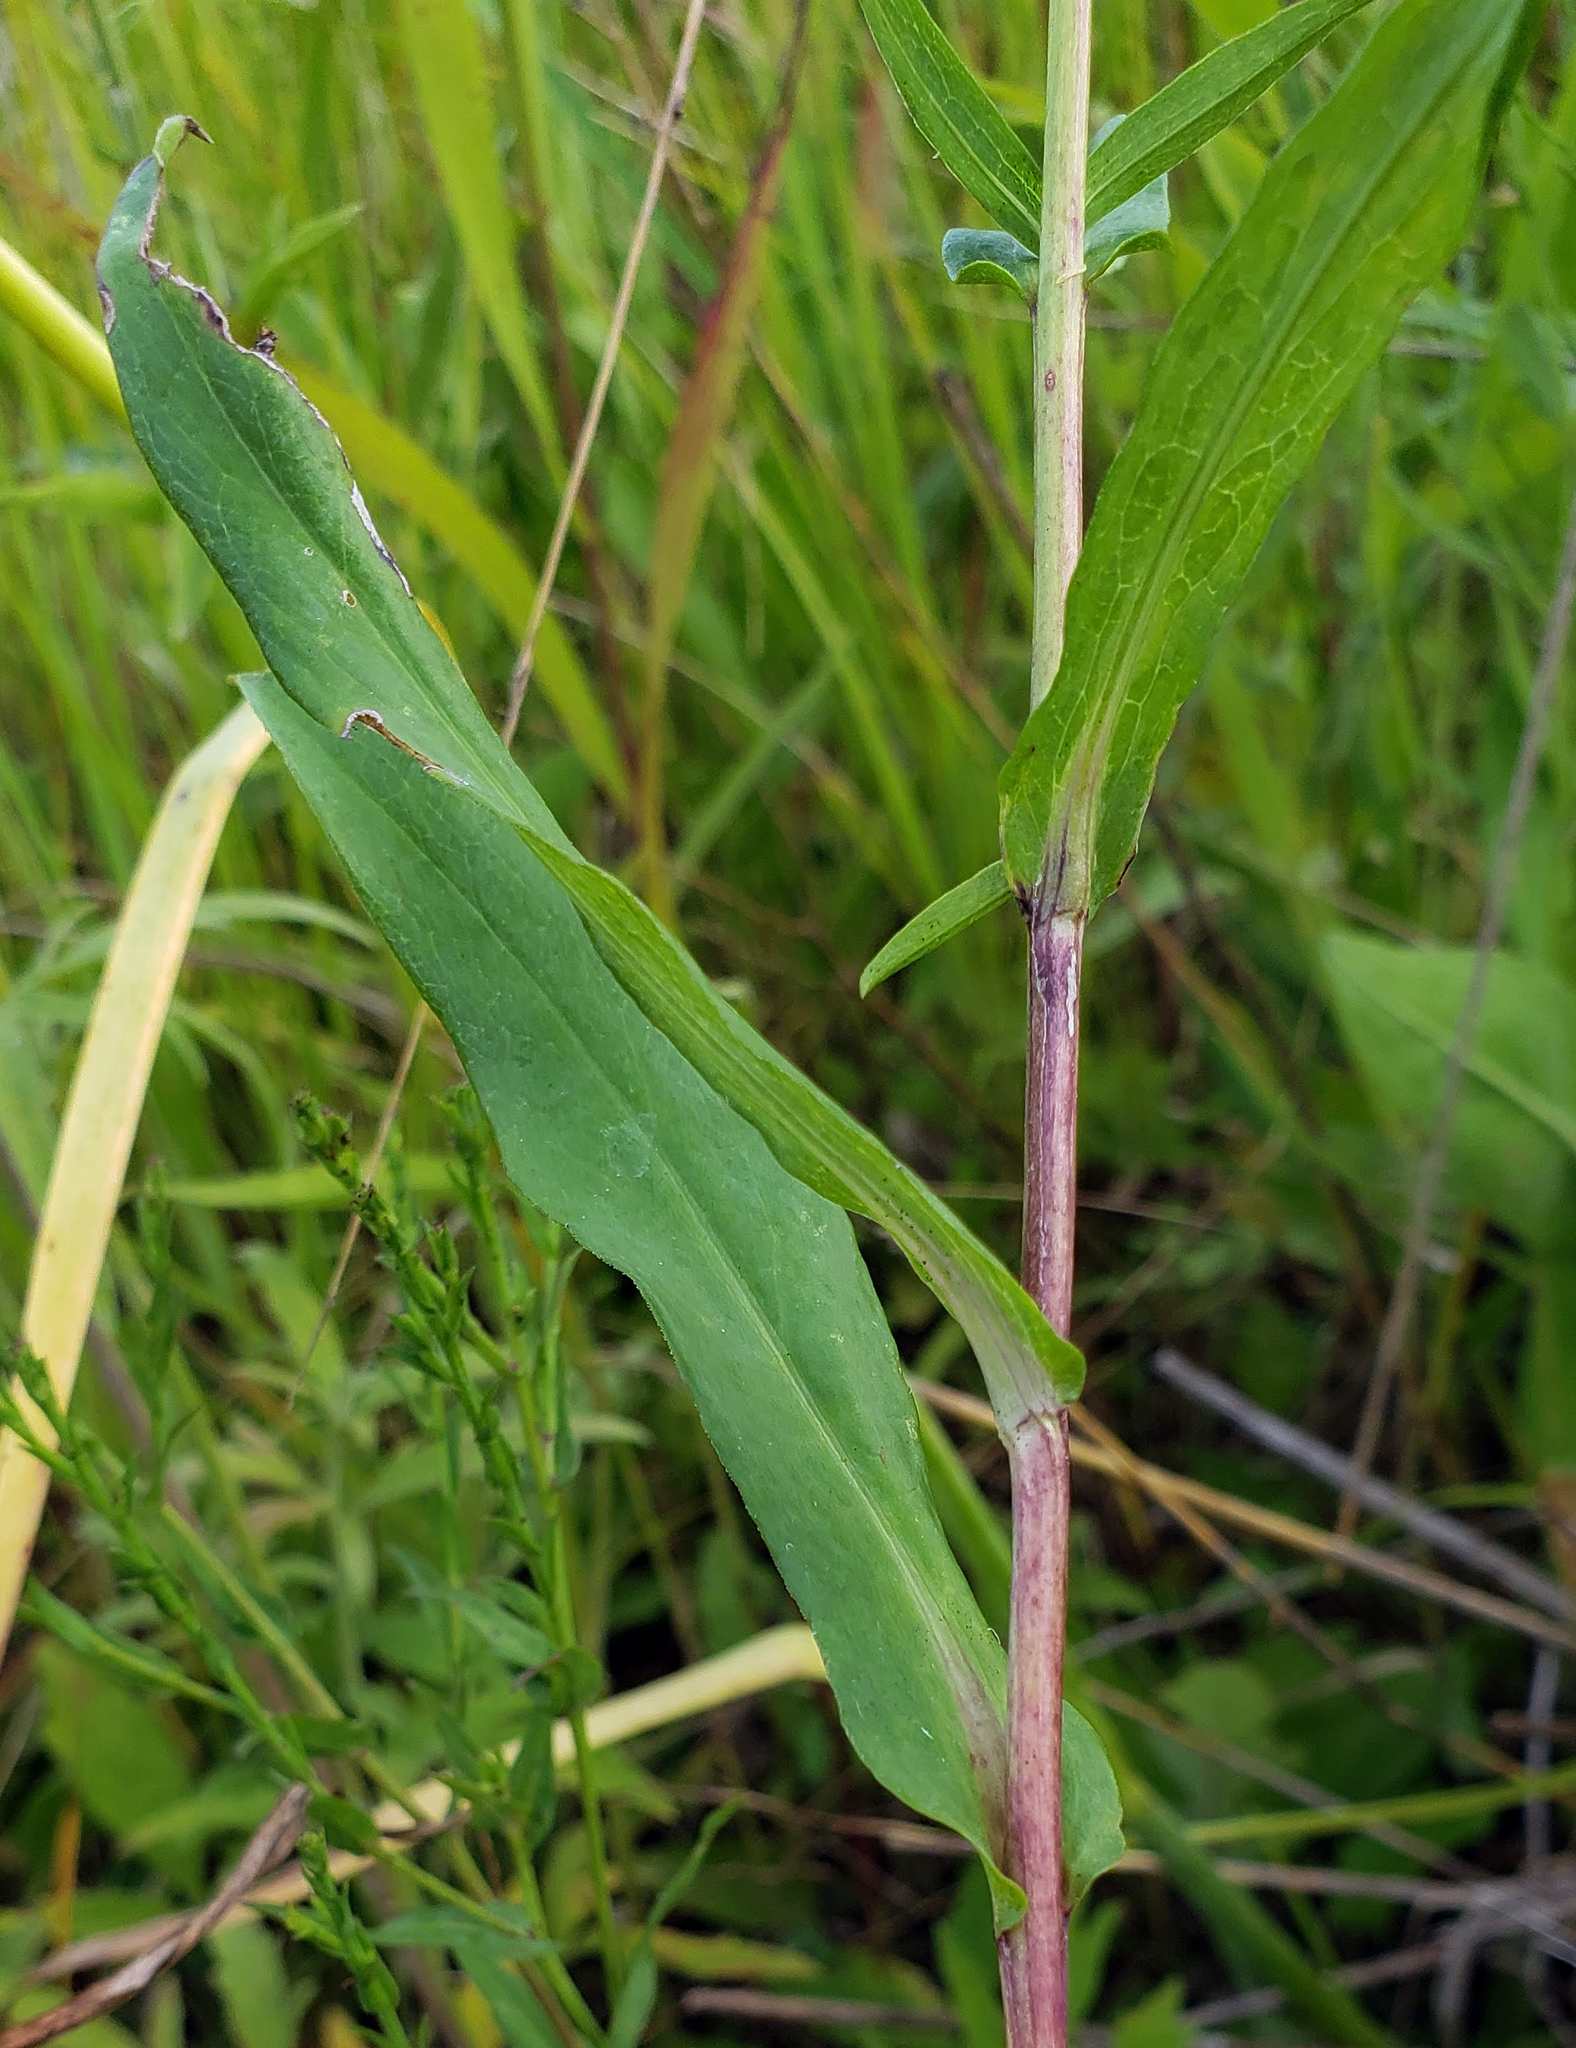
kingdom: Plantae
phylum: Tracheophyta
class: Magnoliopsida
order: Asterales
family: Asteraceae
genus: Symphyotrichum
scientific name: Symphyotrichum laeve
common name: Glaucous aster
